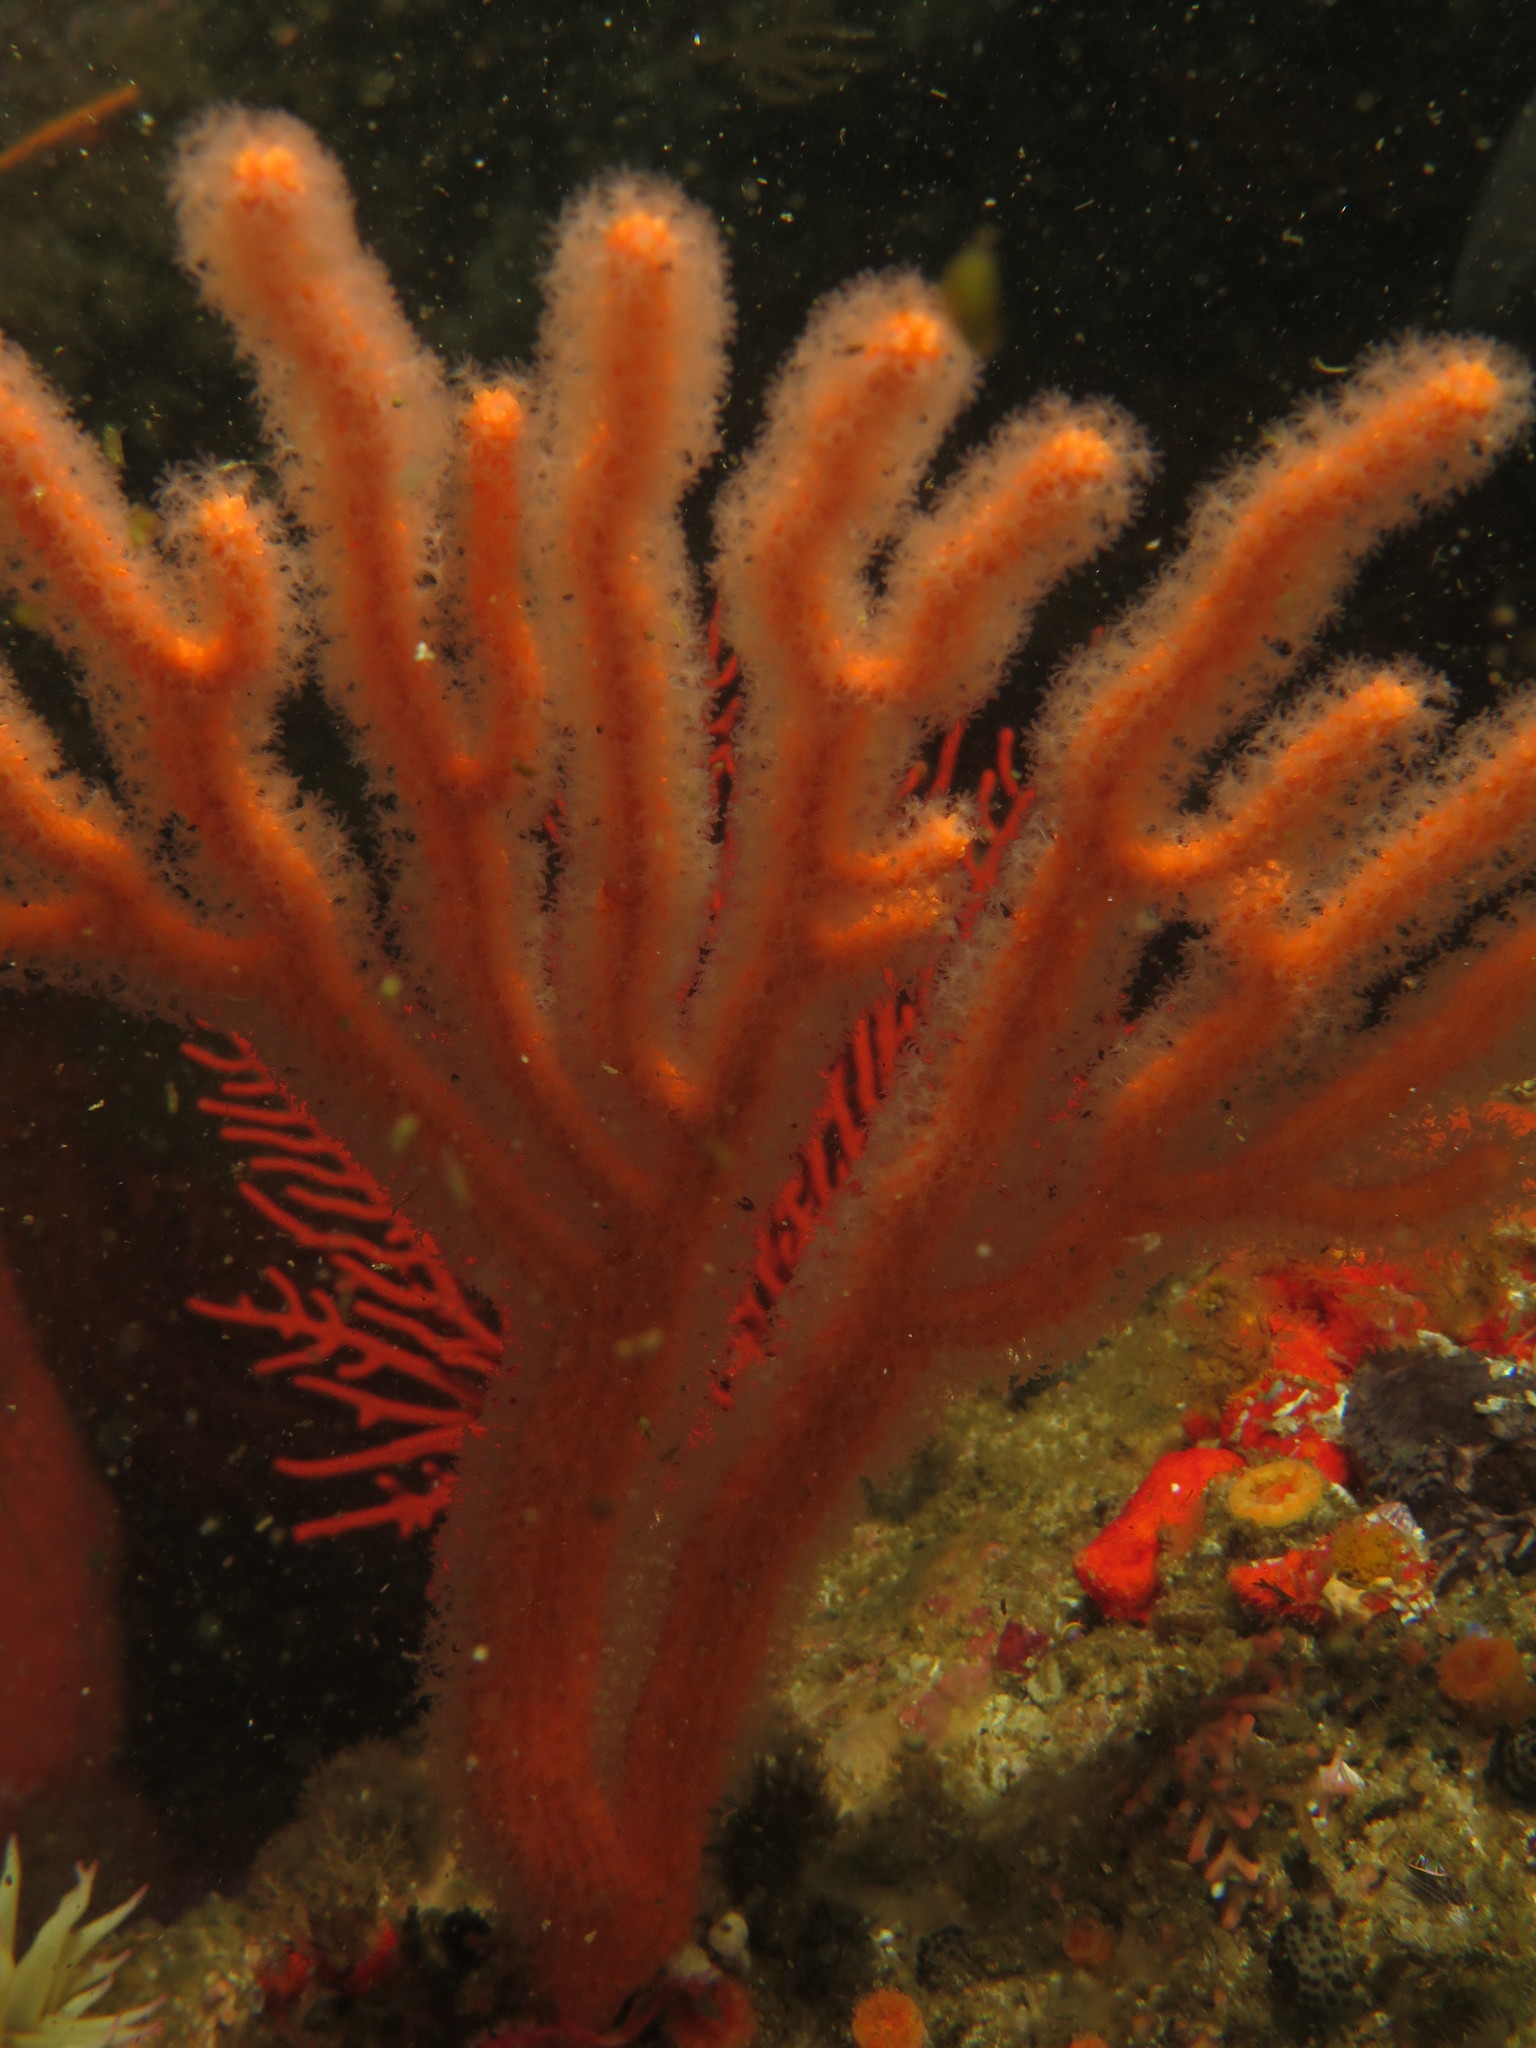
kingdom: Animalia
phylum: Cnidaria
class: Anthozoa
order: Malacalcyonacea
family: Eunicellidae
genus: Eunicella
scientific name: Eunicella microthela
